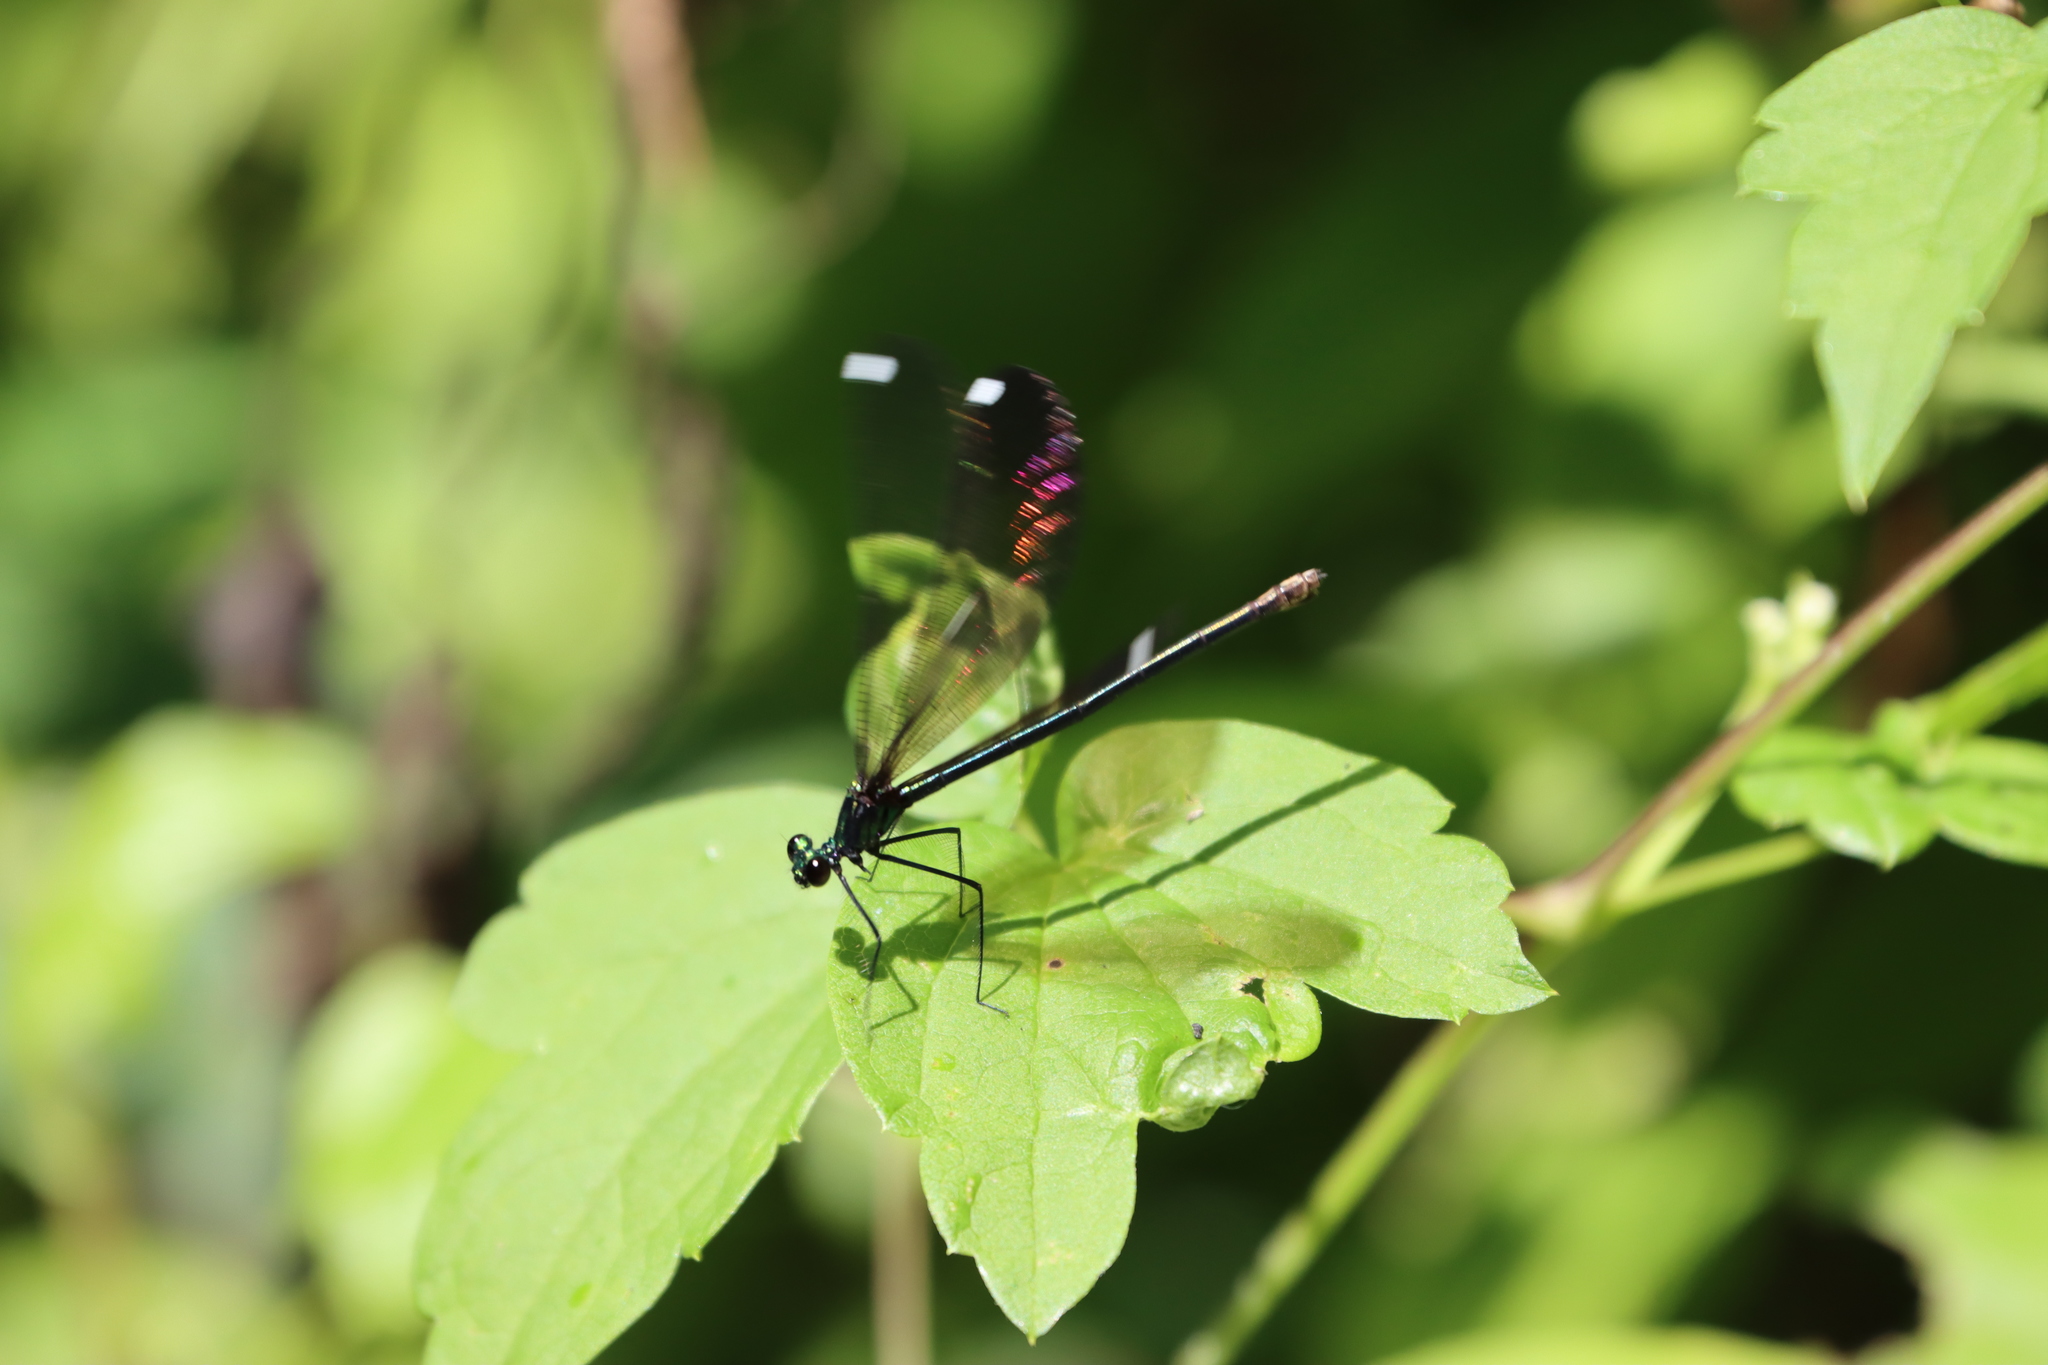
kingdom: Animalia
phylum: Arthropoda
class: Insecta
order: Odonata
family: Calopterygidae
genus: Calopteryx
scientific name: Calopteryx maculata
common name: Ebony jewelwing
